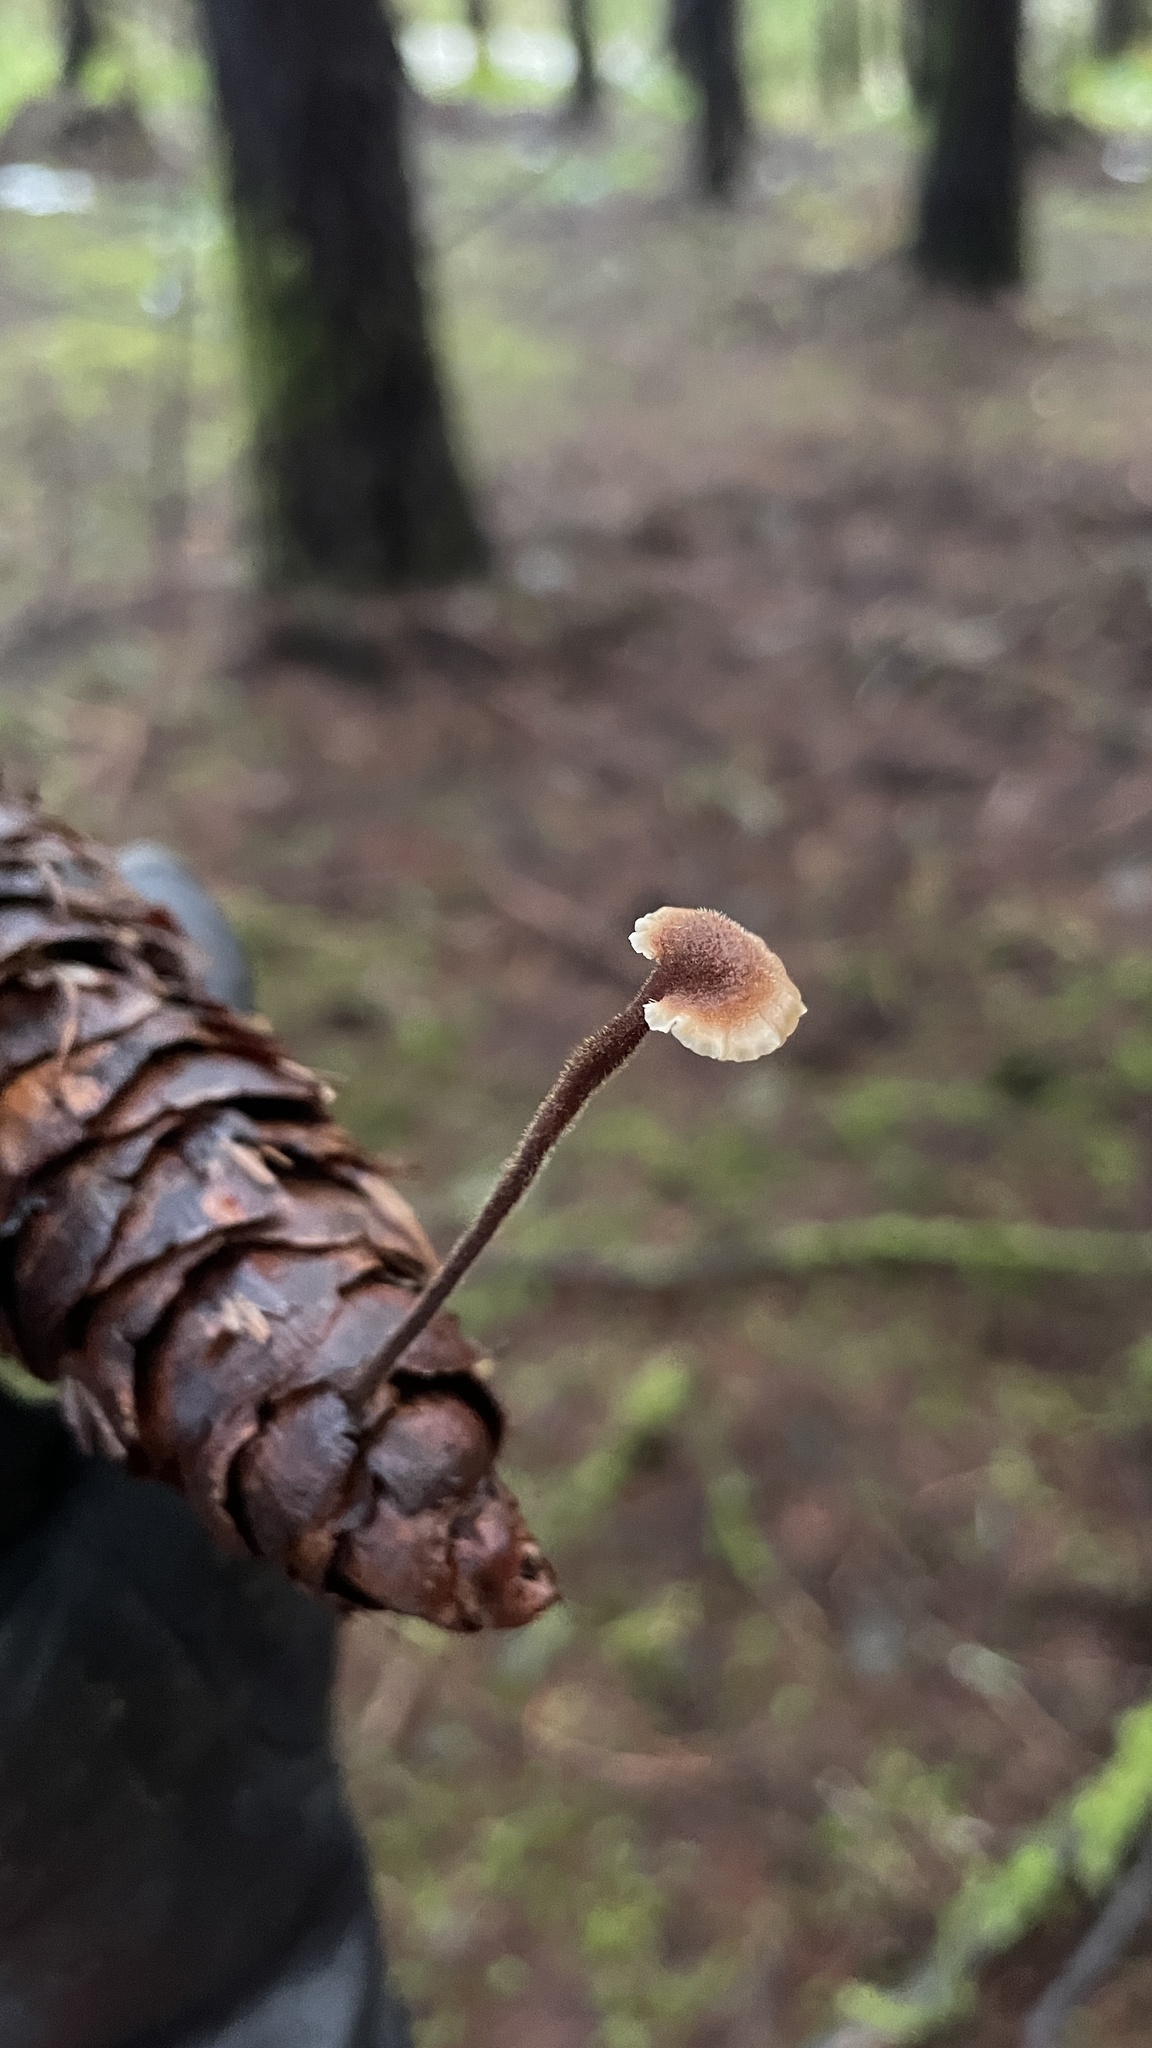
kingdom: Fungi
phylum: Basidiomycota
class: Agaricomycetes
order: Russulales
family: Auriscalpiaceae
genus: Auriscalpium
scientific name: Auriscalpium vulgare
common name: Earpick fungus
